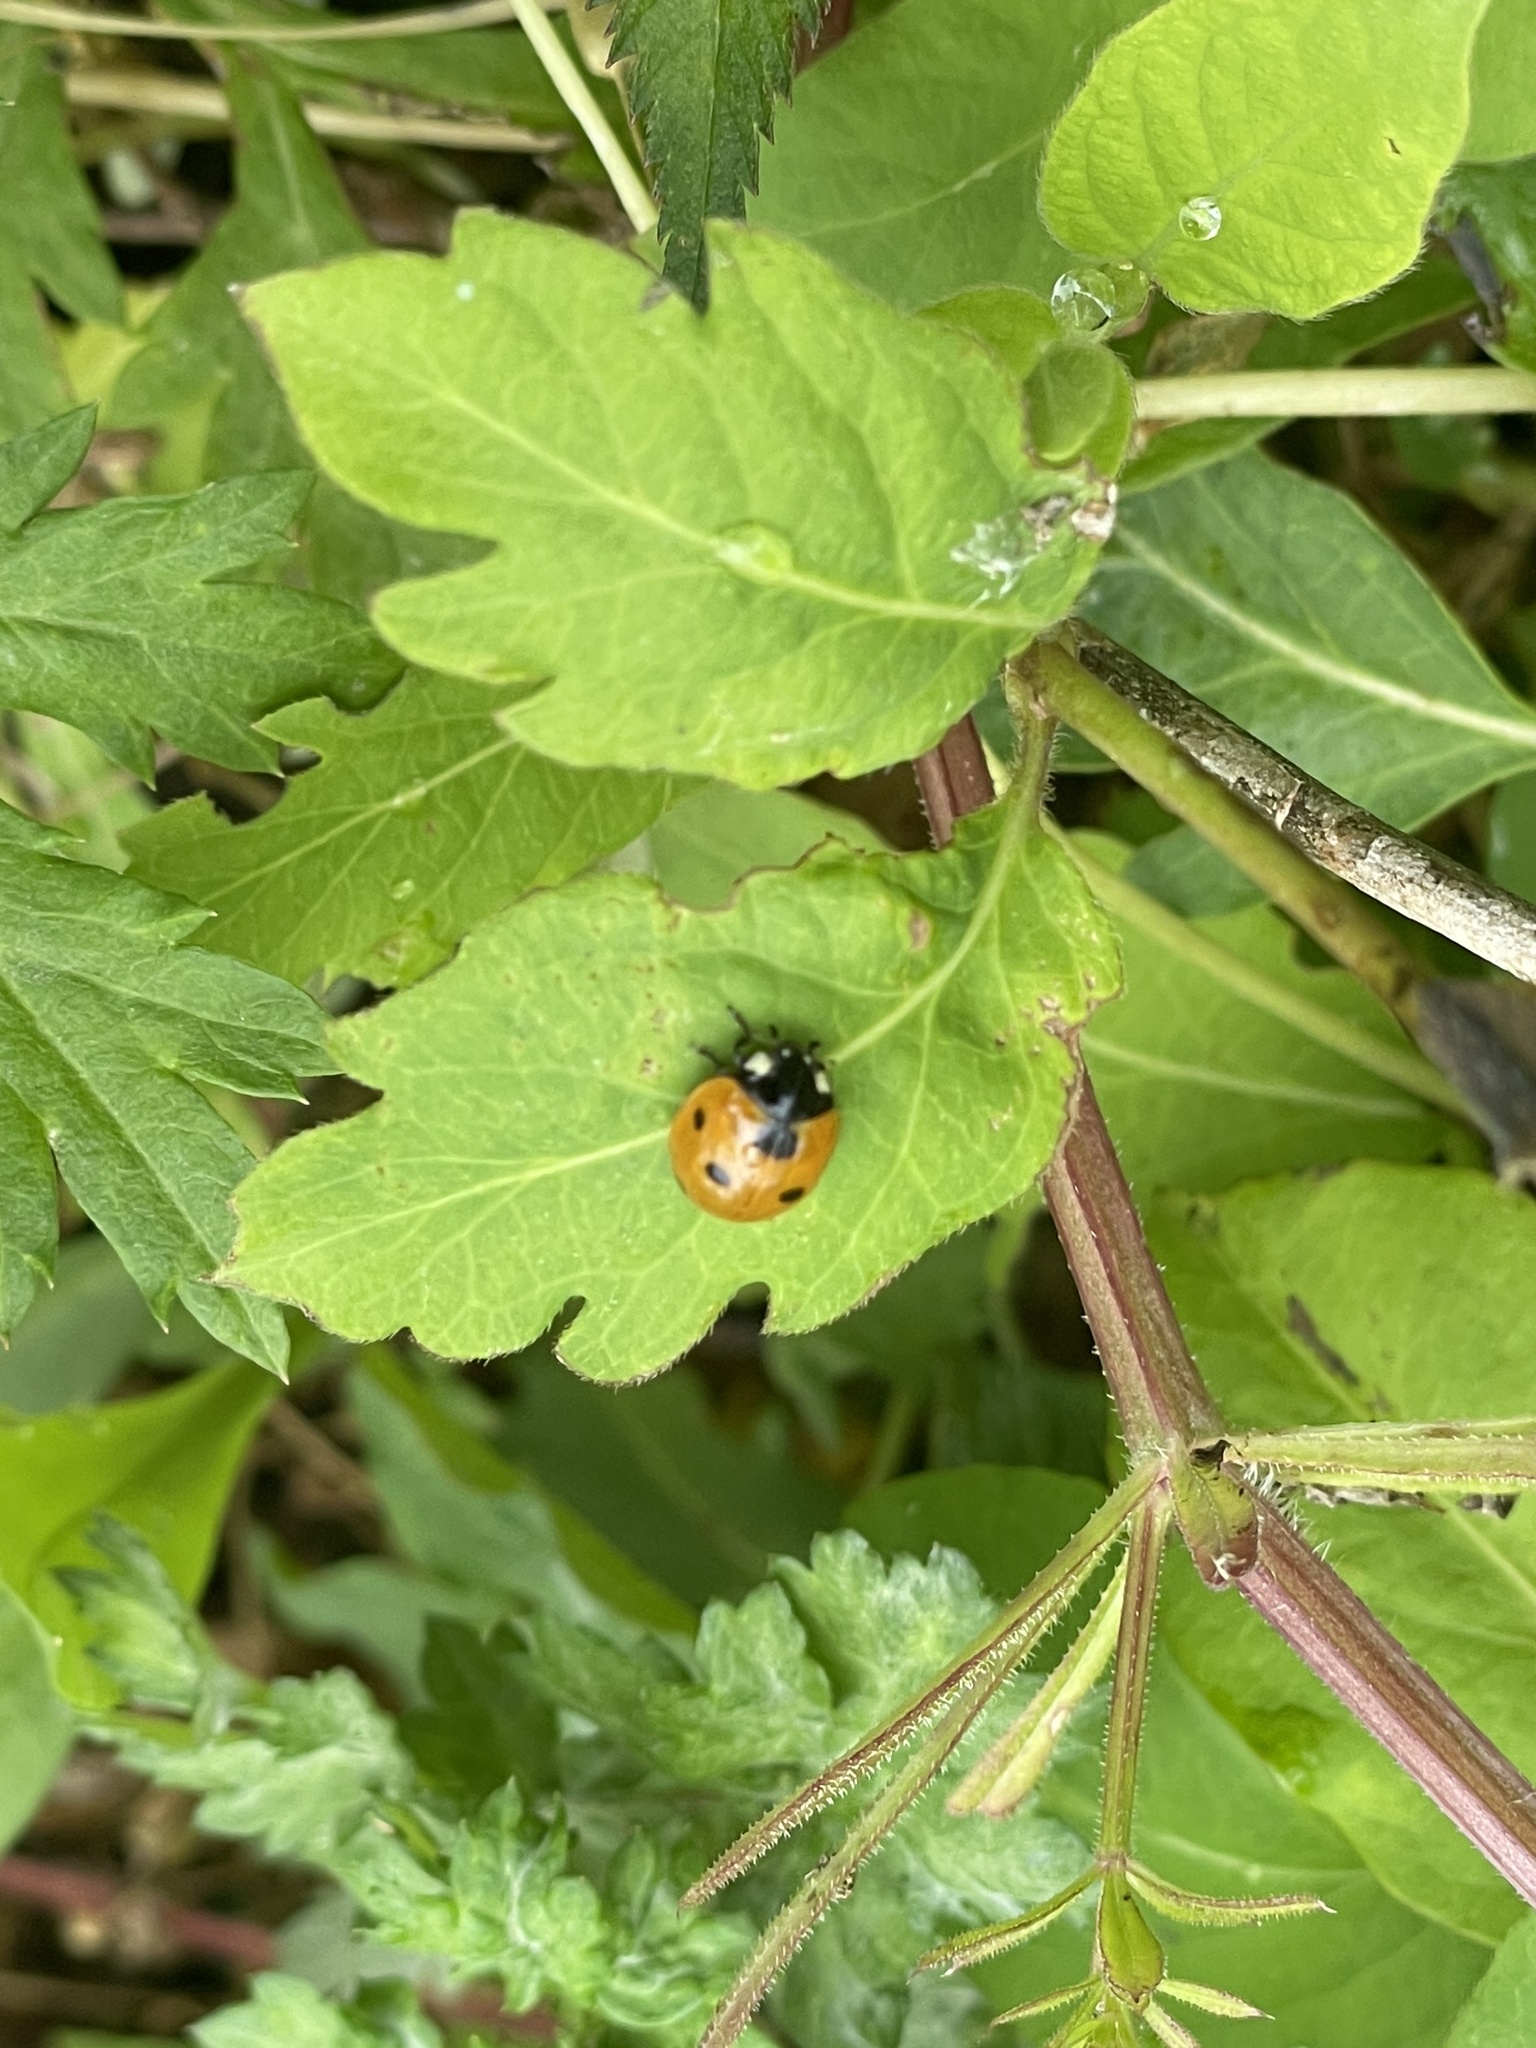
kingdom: Animalia
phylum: Arthropoda
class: Insecta
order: Coleoptera
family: Coccinellidae
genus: Coccinella
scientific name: Coccinella septempunctata
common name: Sevenspotted lady beetle
